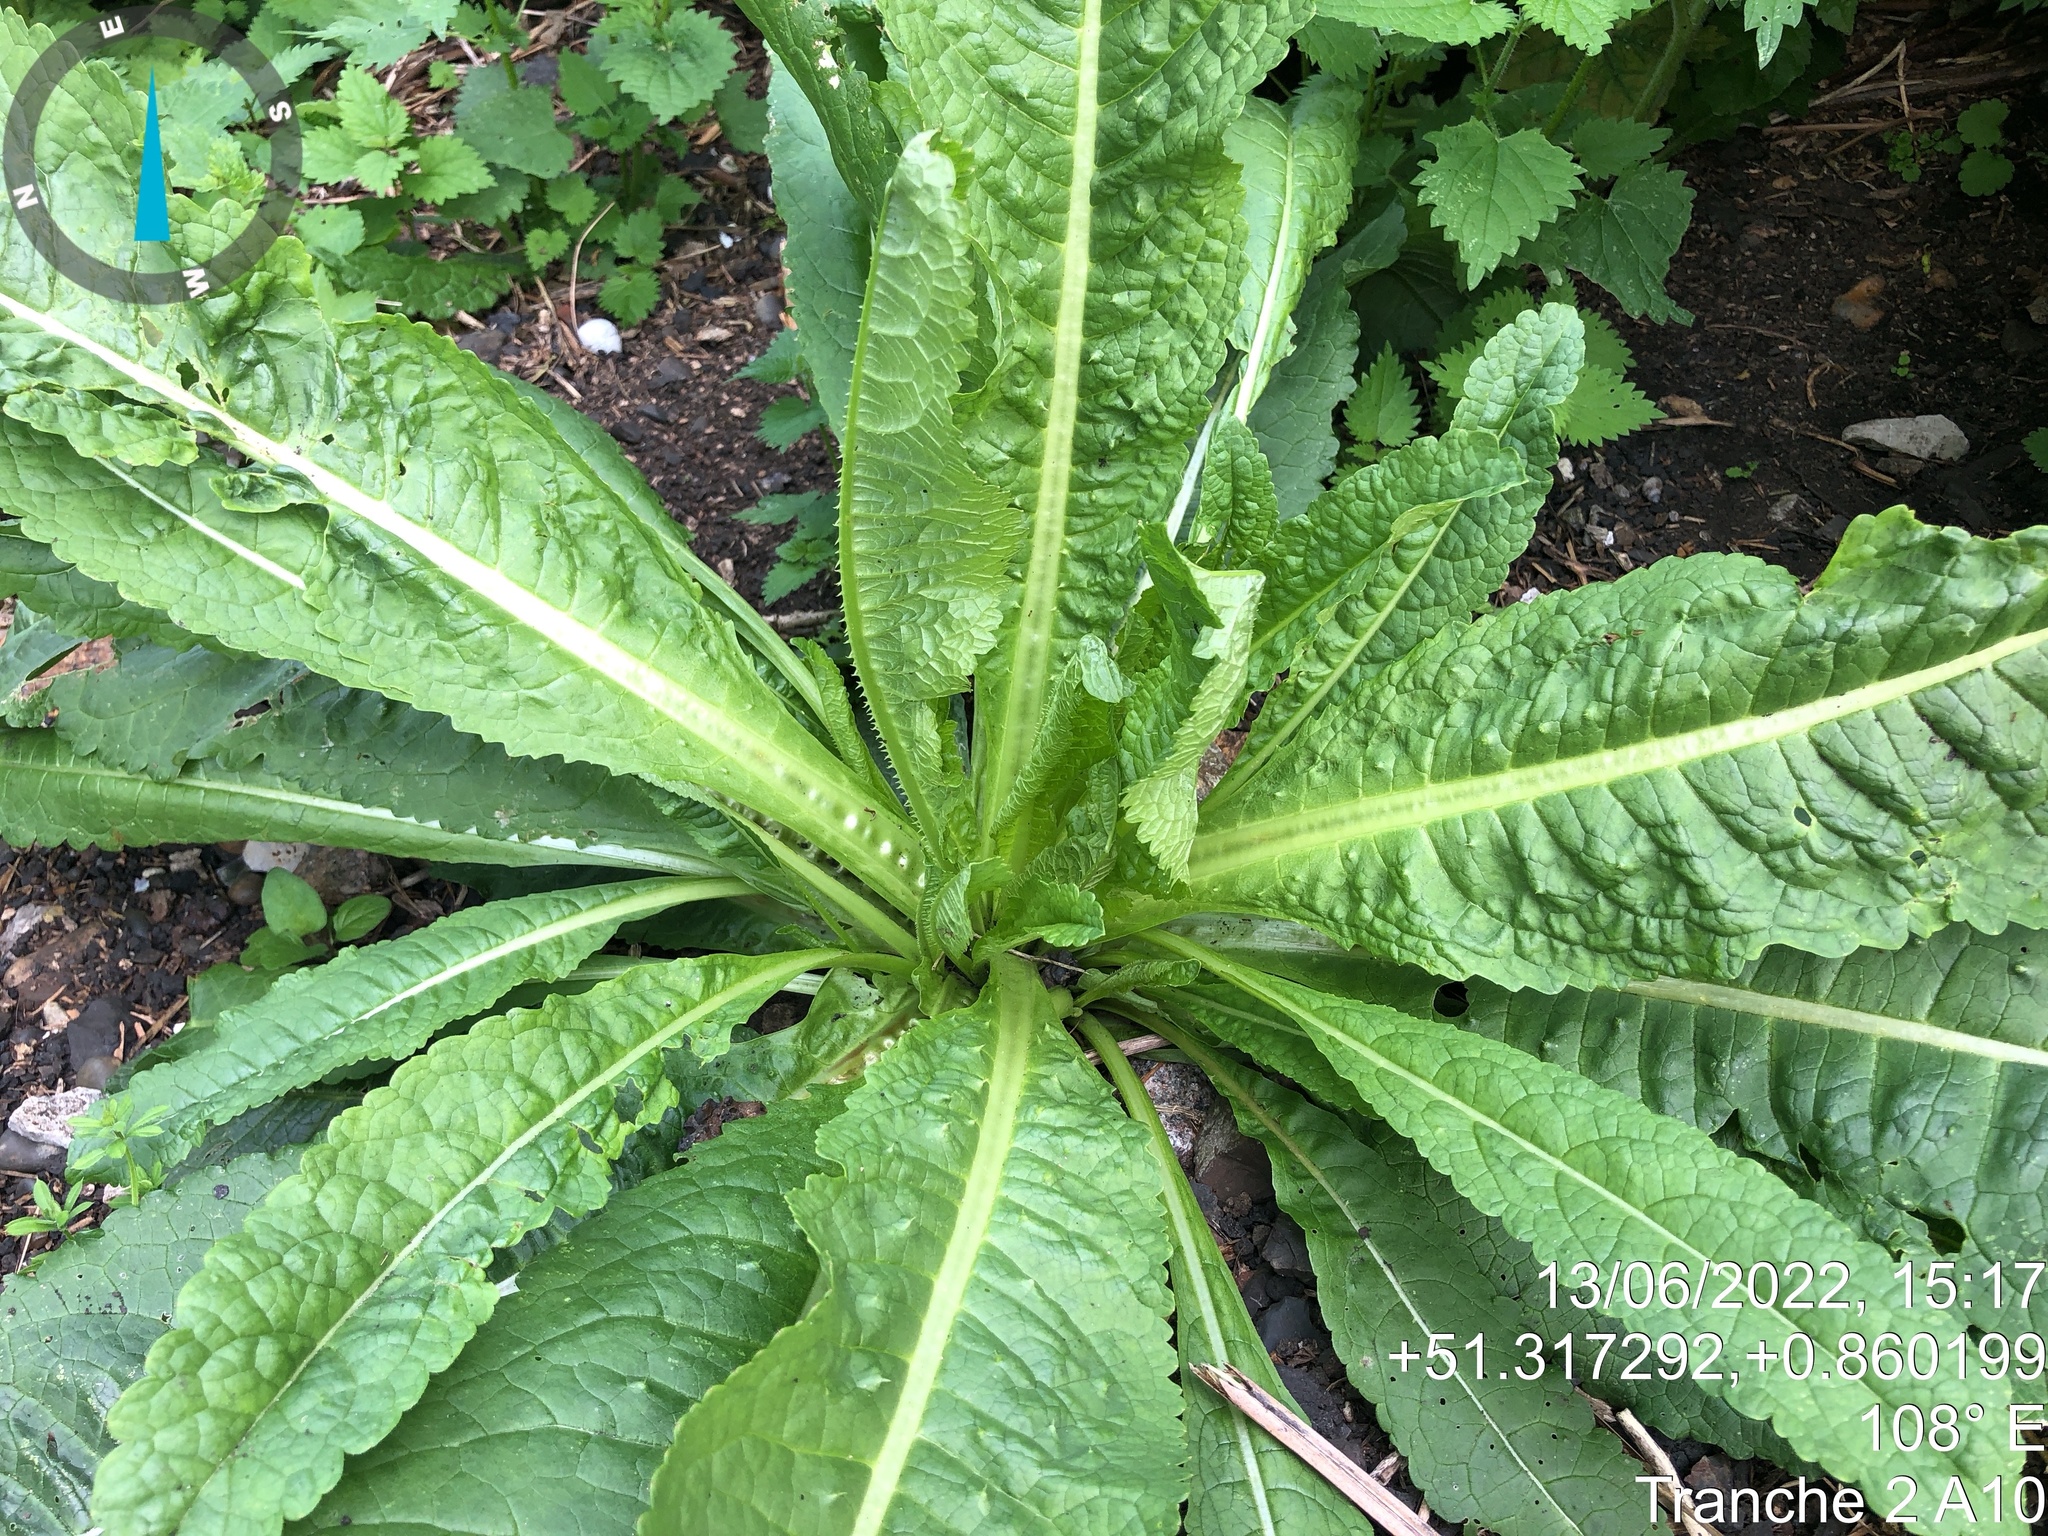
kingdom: Plantae
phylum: Tracheophyta
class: Magnoliopsida
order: Dipsacales
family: Caprifoliaceae
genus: Dipsacus
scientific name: Dipsacus fullonum
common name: Teasel
